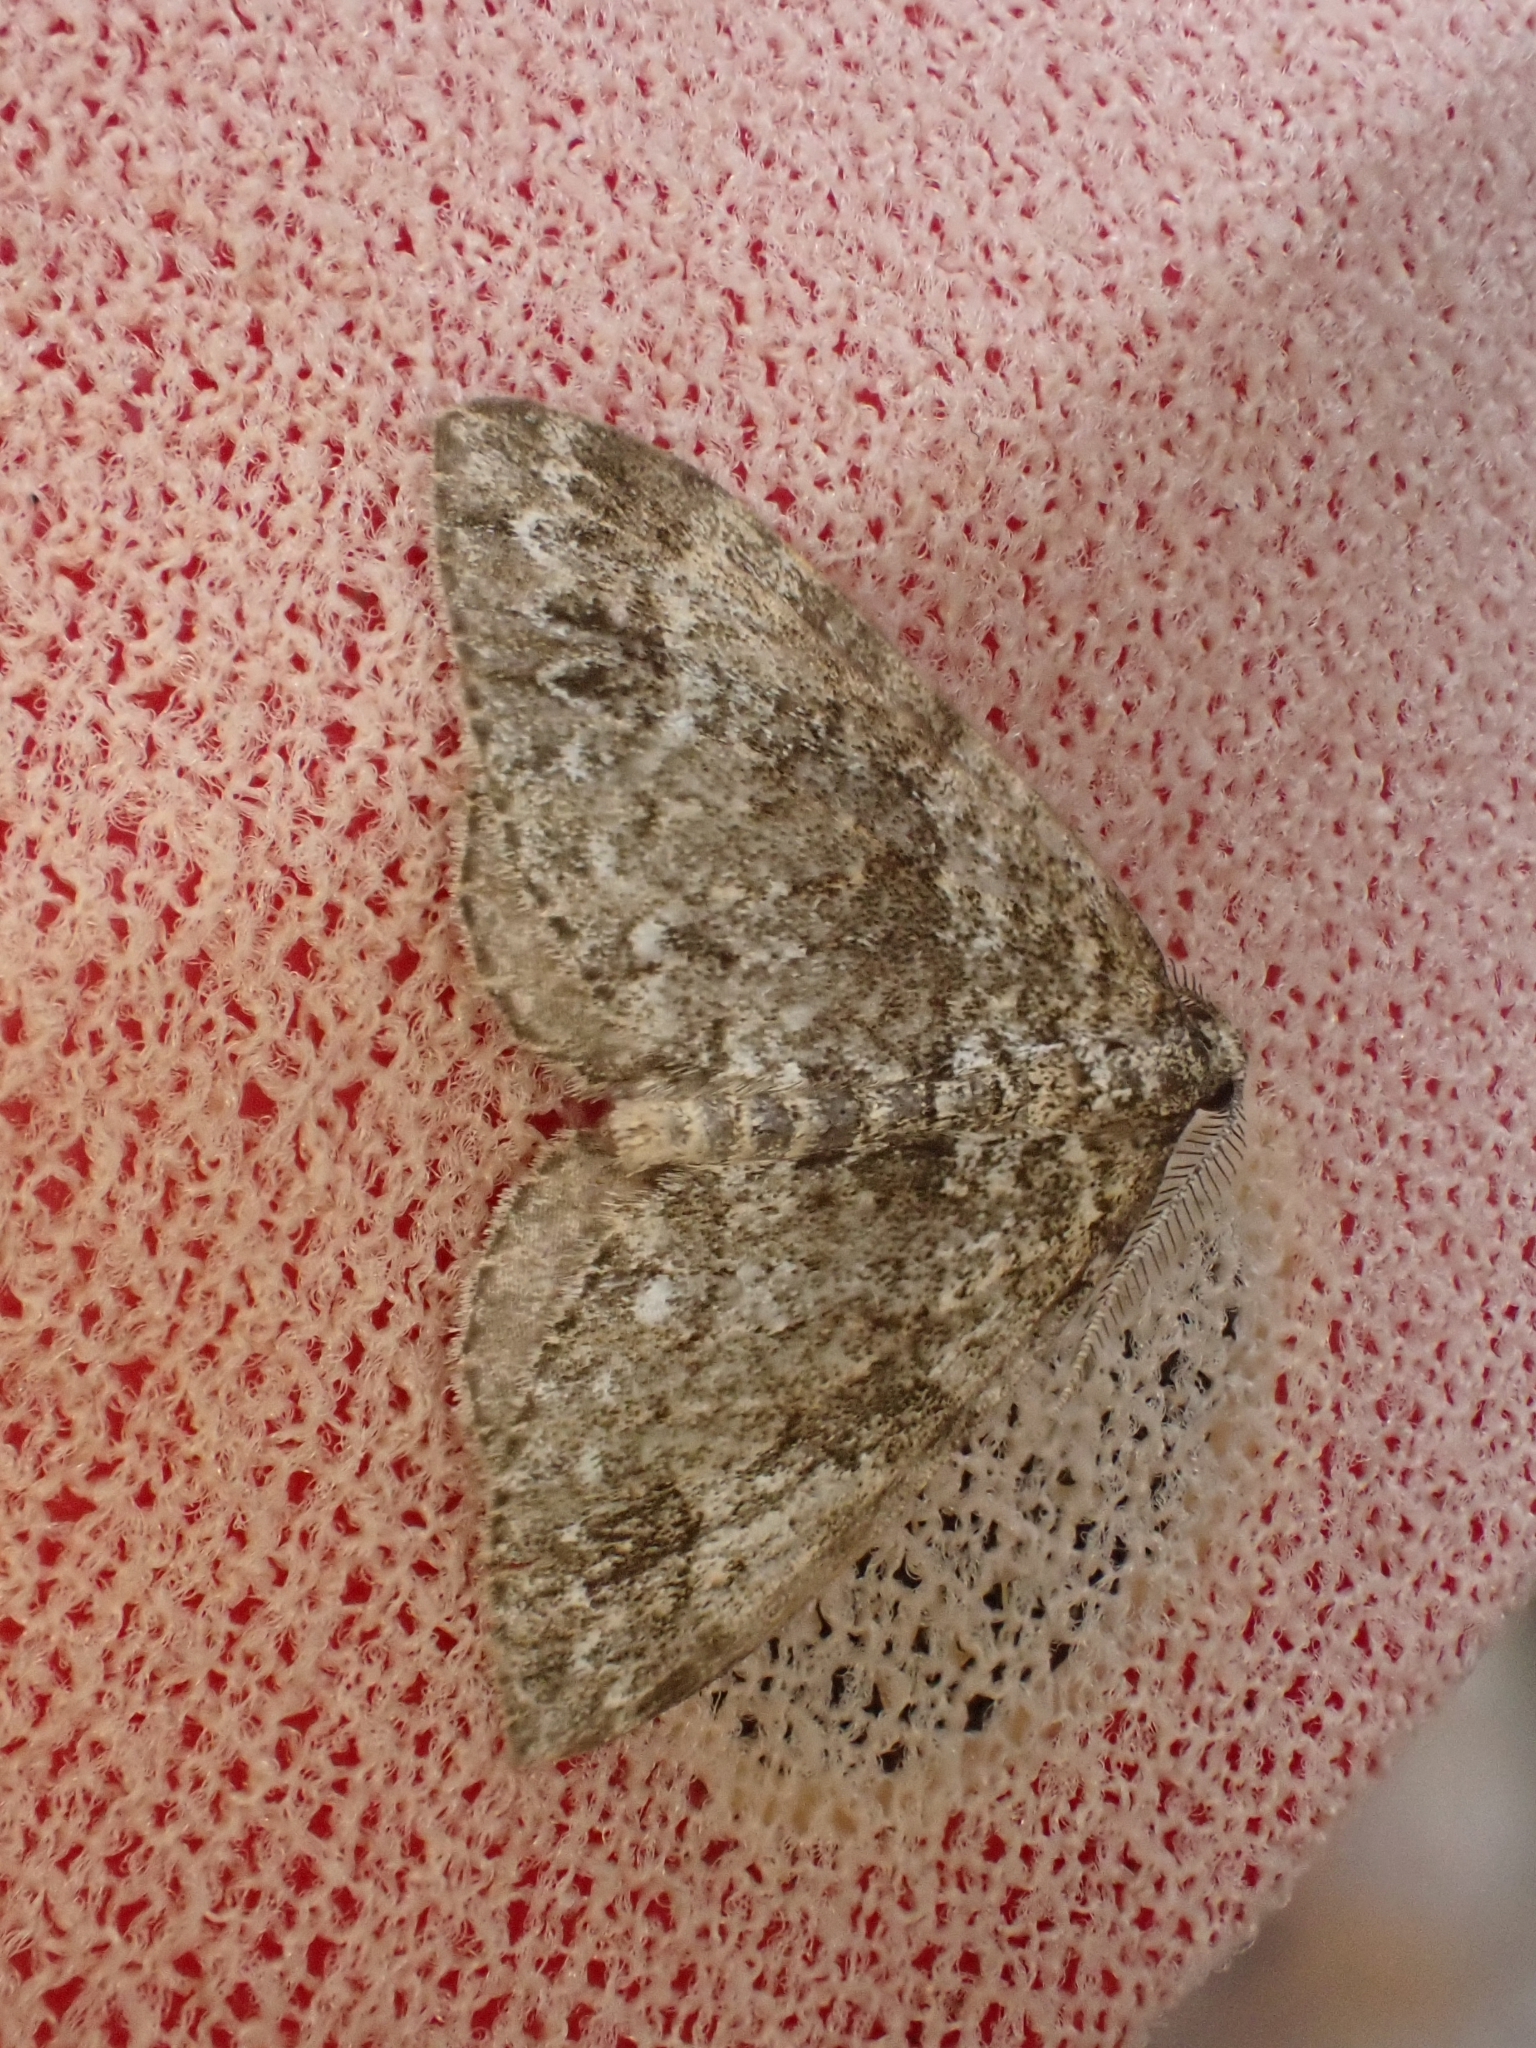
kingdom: Animalia
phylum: Arthropoda
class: Insecta
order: Lepidoptera
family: Geometridae
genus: Perizoma
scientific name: Perizoma didymata
